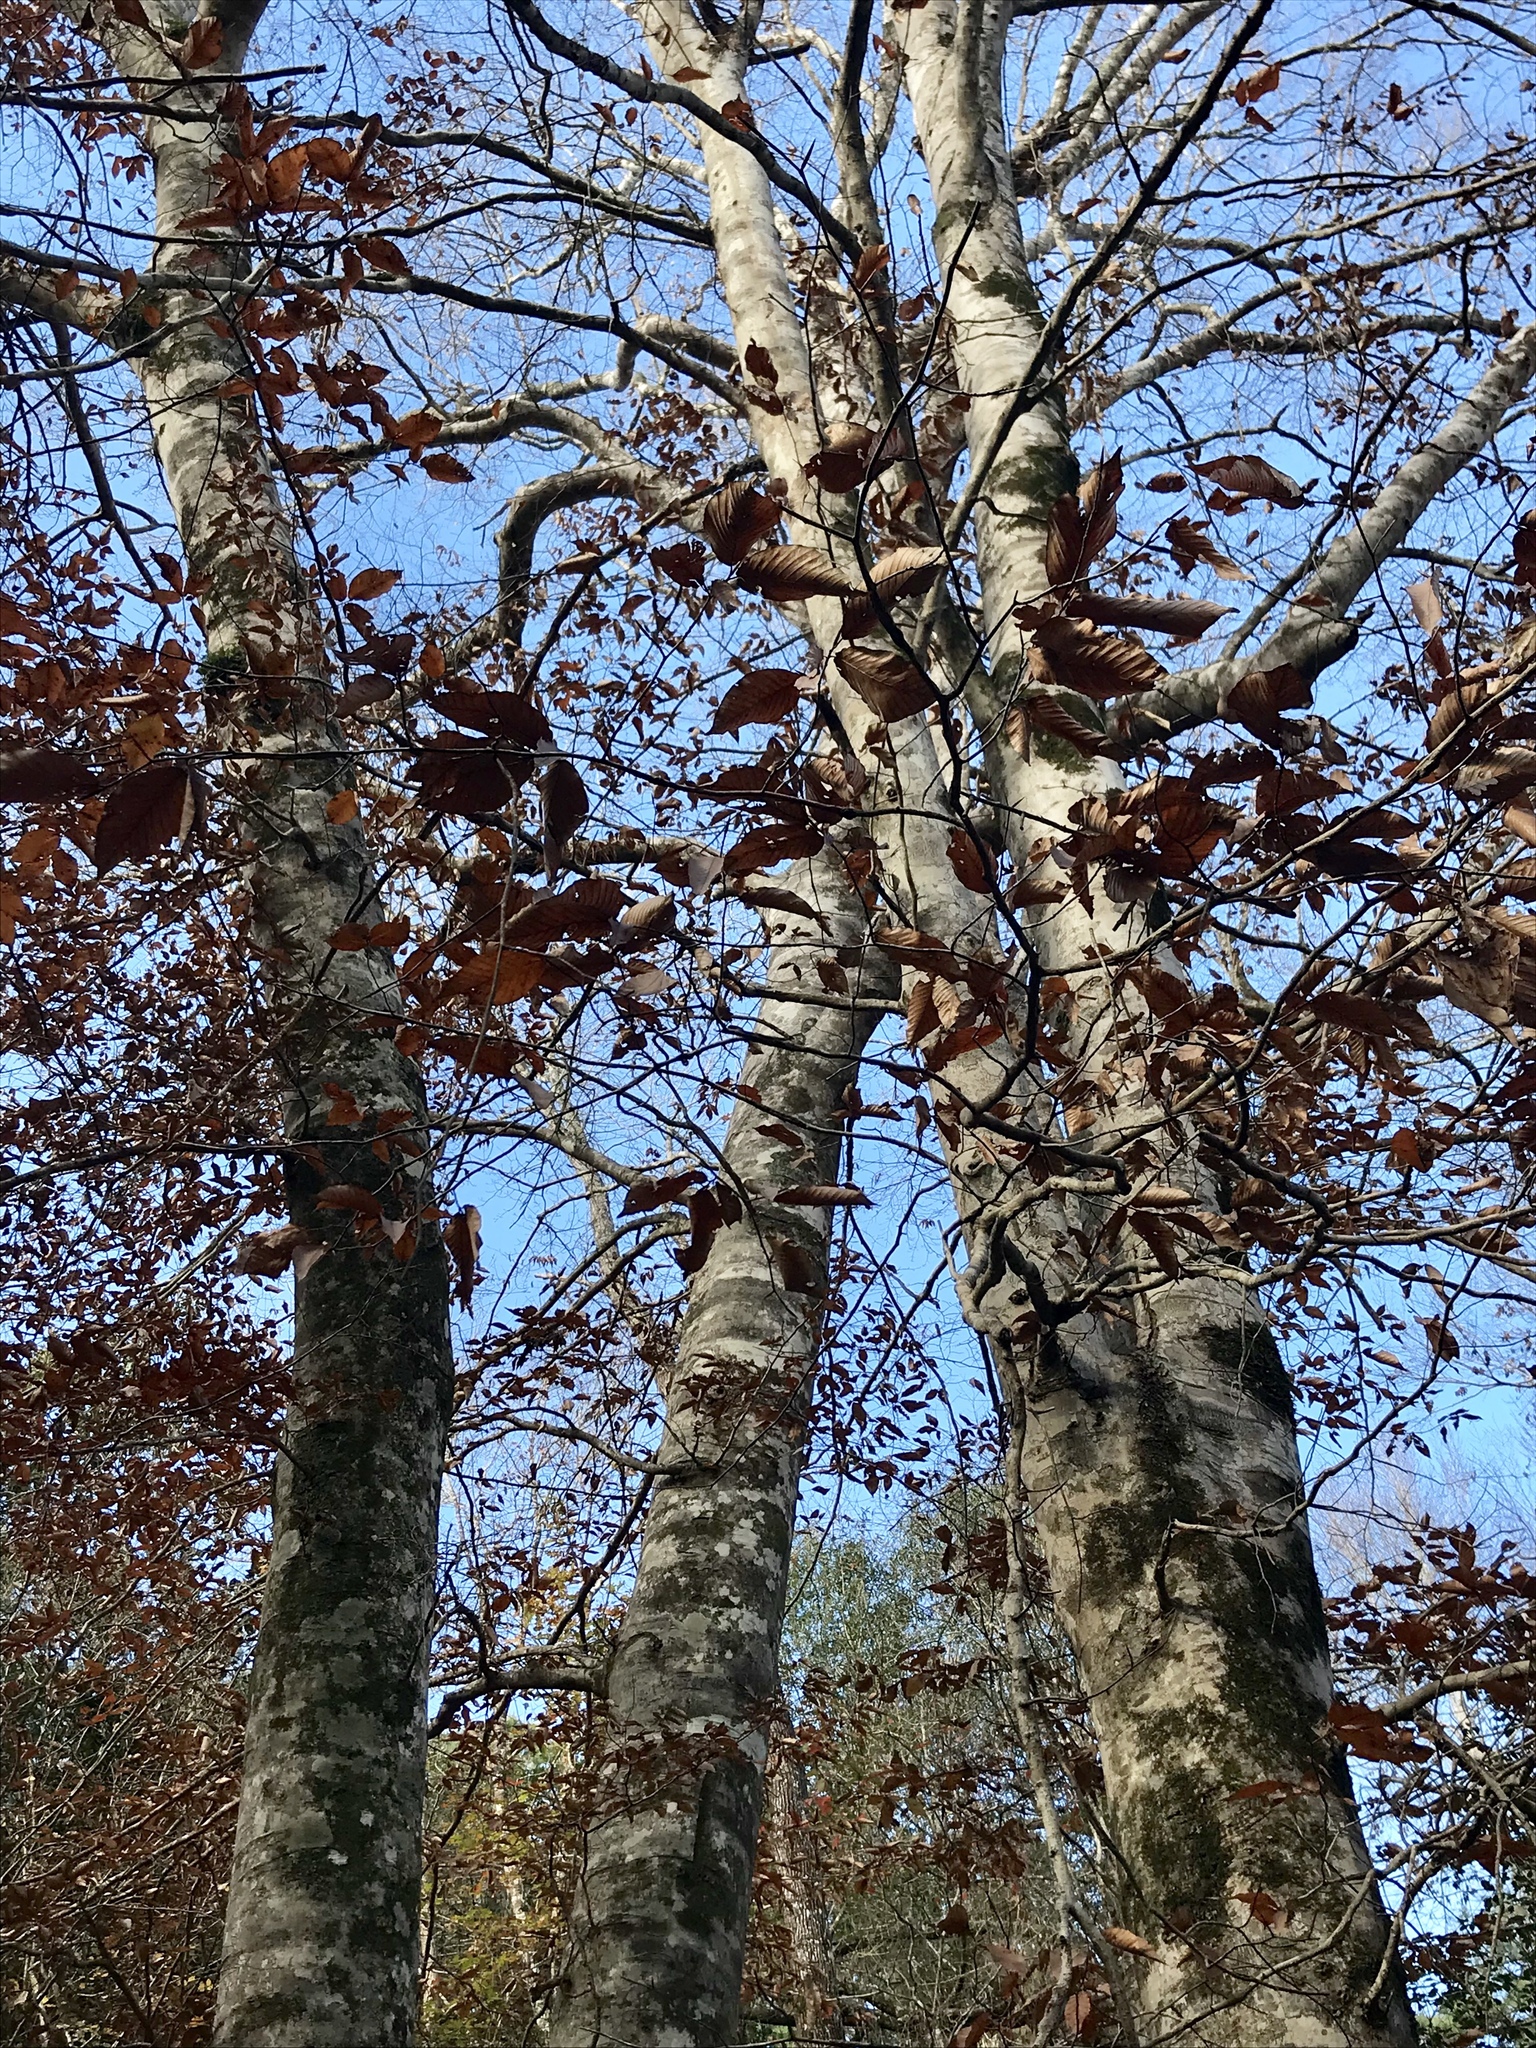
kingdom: Plantae
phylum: Tracheophyta
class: Magnoliopsida
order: Fagales
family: Fagaceae
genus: Fagus
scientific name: Fagus grandifolia
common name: American beech
